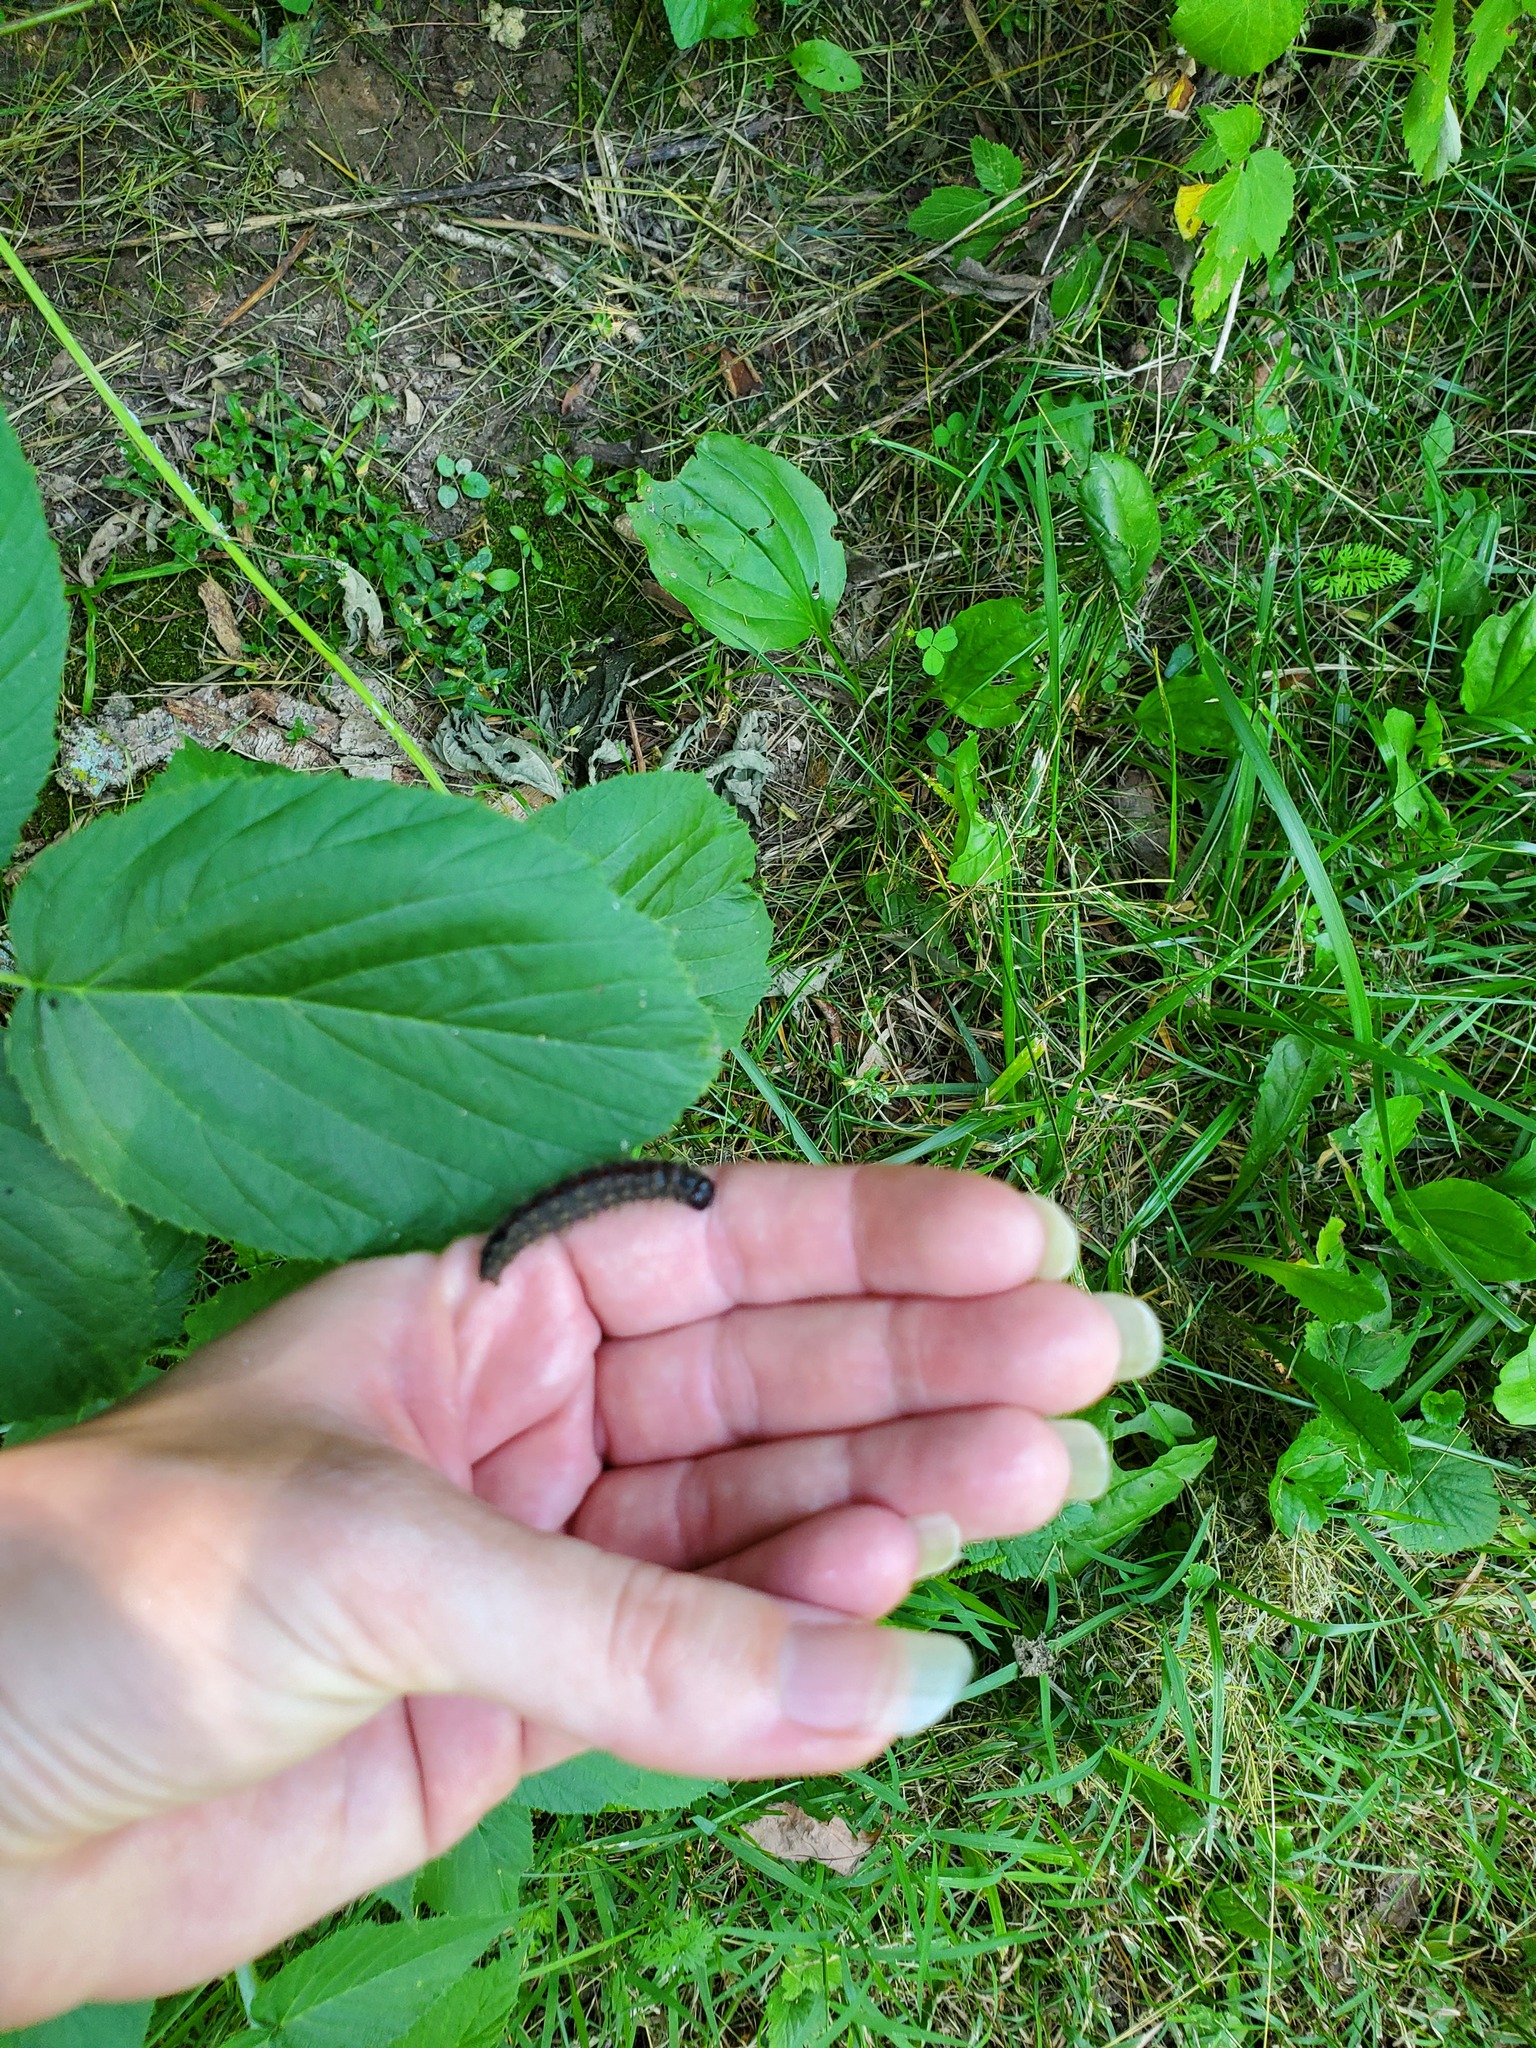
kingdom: Animalia
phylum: Arthropoda
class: Insecta
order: Lepidoptera
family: Noctuidae
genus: Acronicta
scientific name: Acronicta hasta
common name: Cherry dagger
